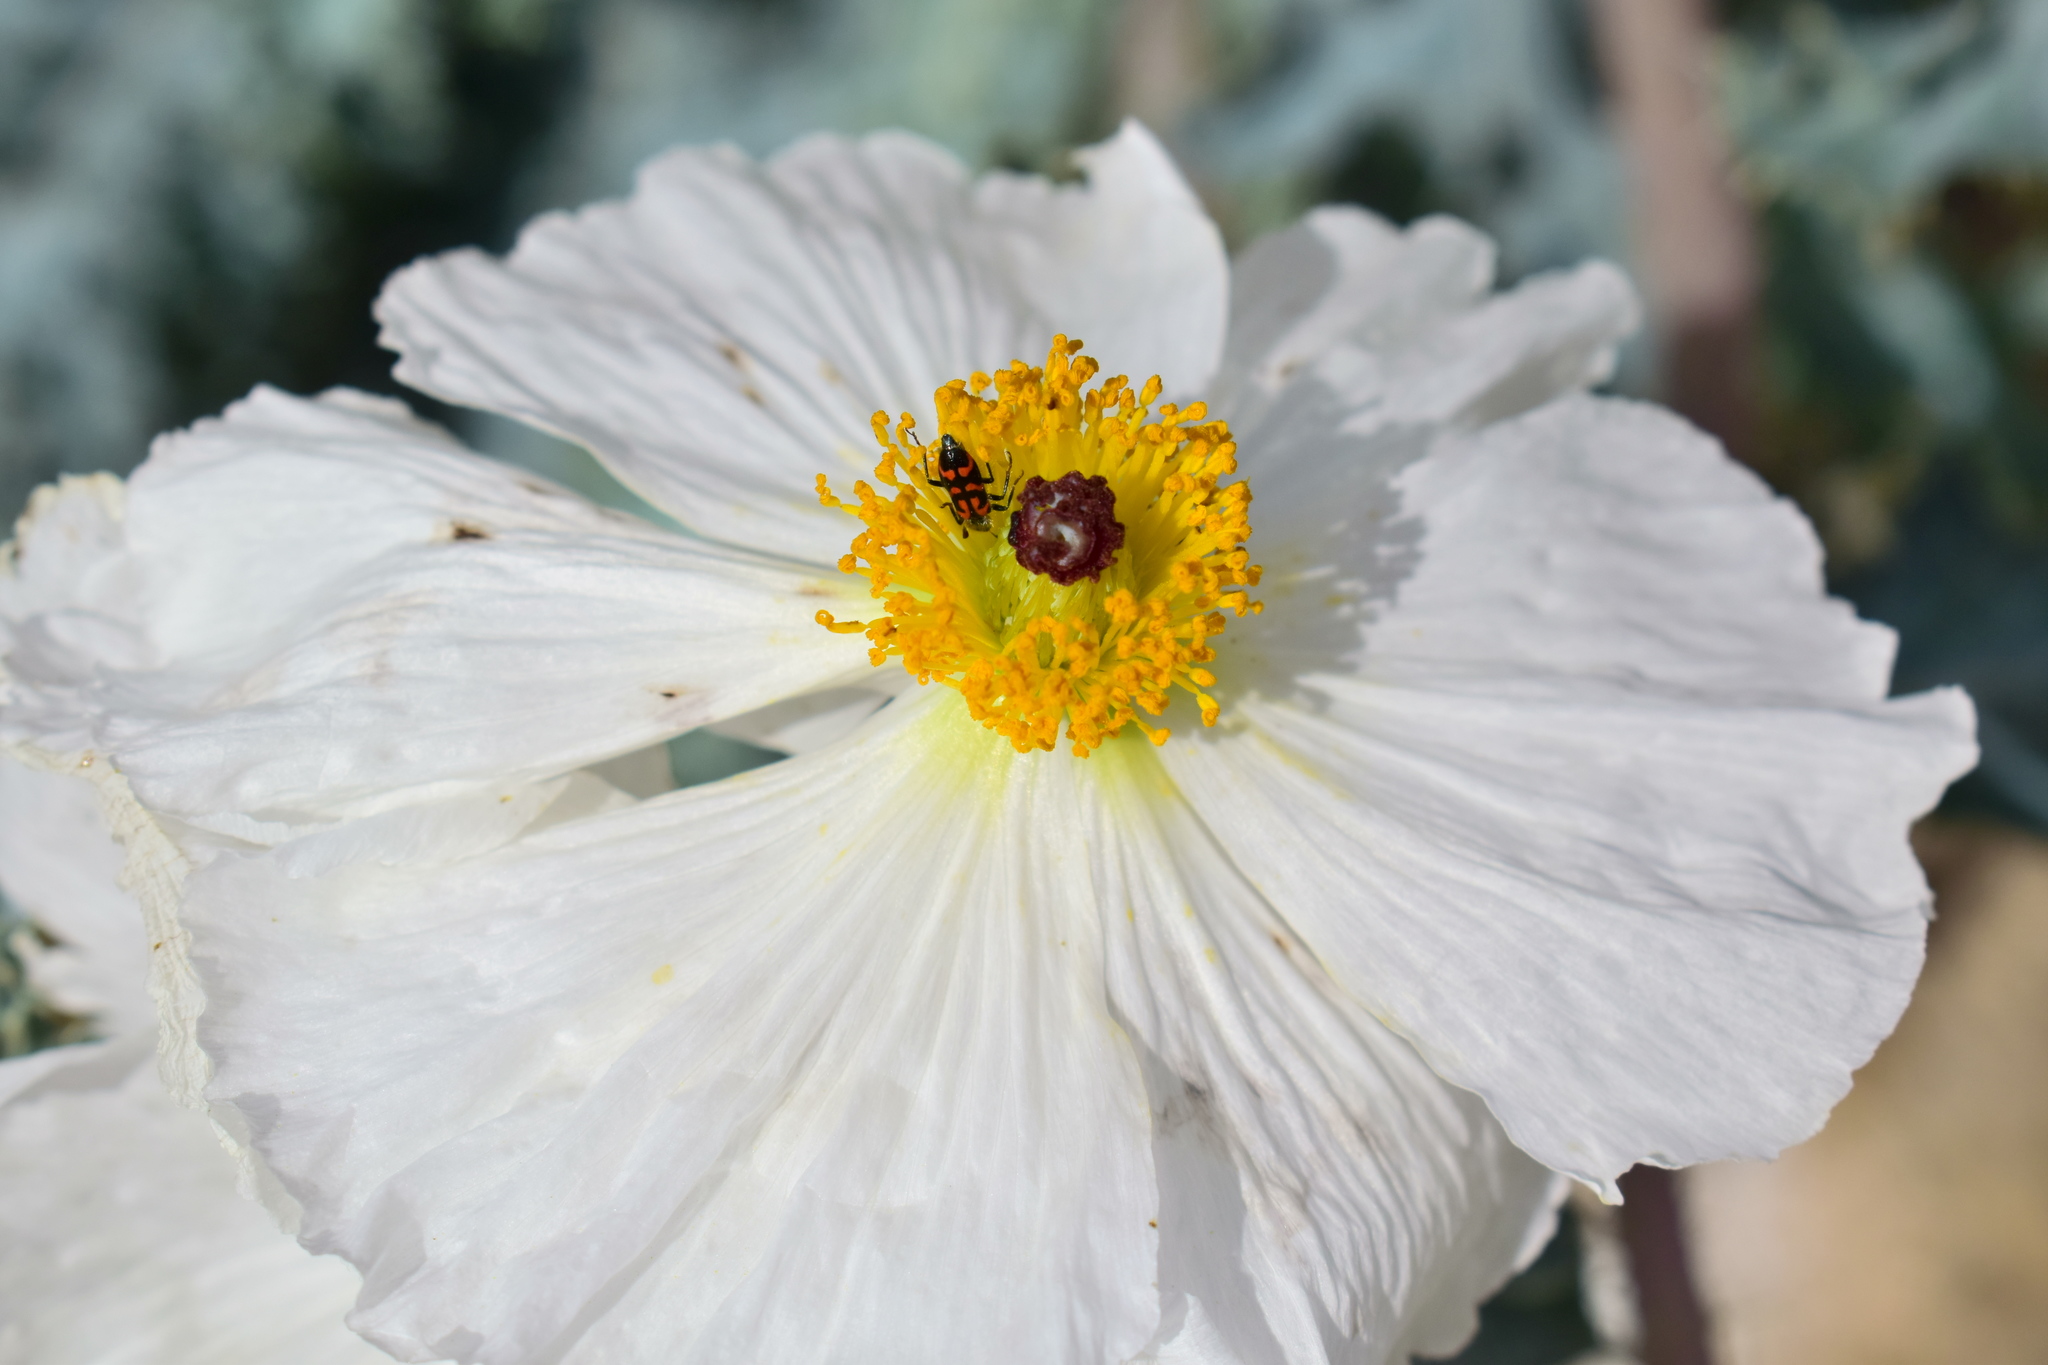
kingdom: Plantae
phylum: Tracheophyta
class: Magnoliopsida
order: Ranunculales
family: Papaveraceae
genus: Argemone
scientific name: Argemone munita
